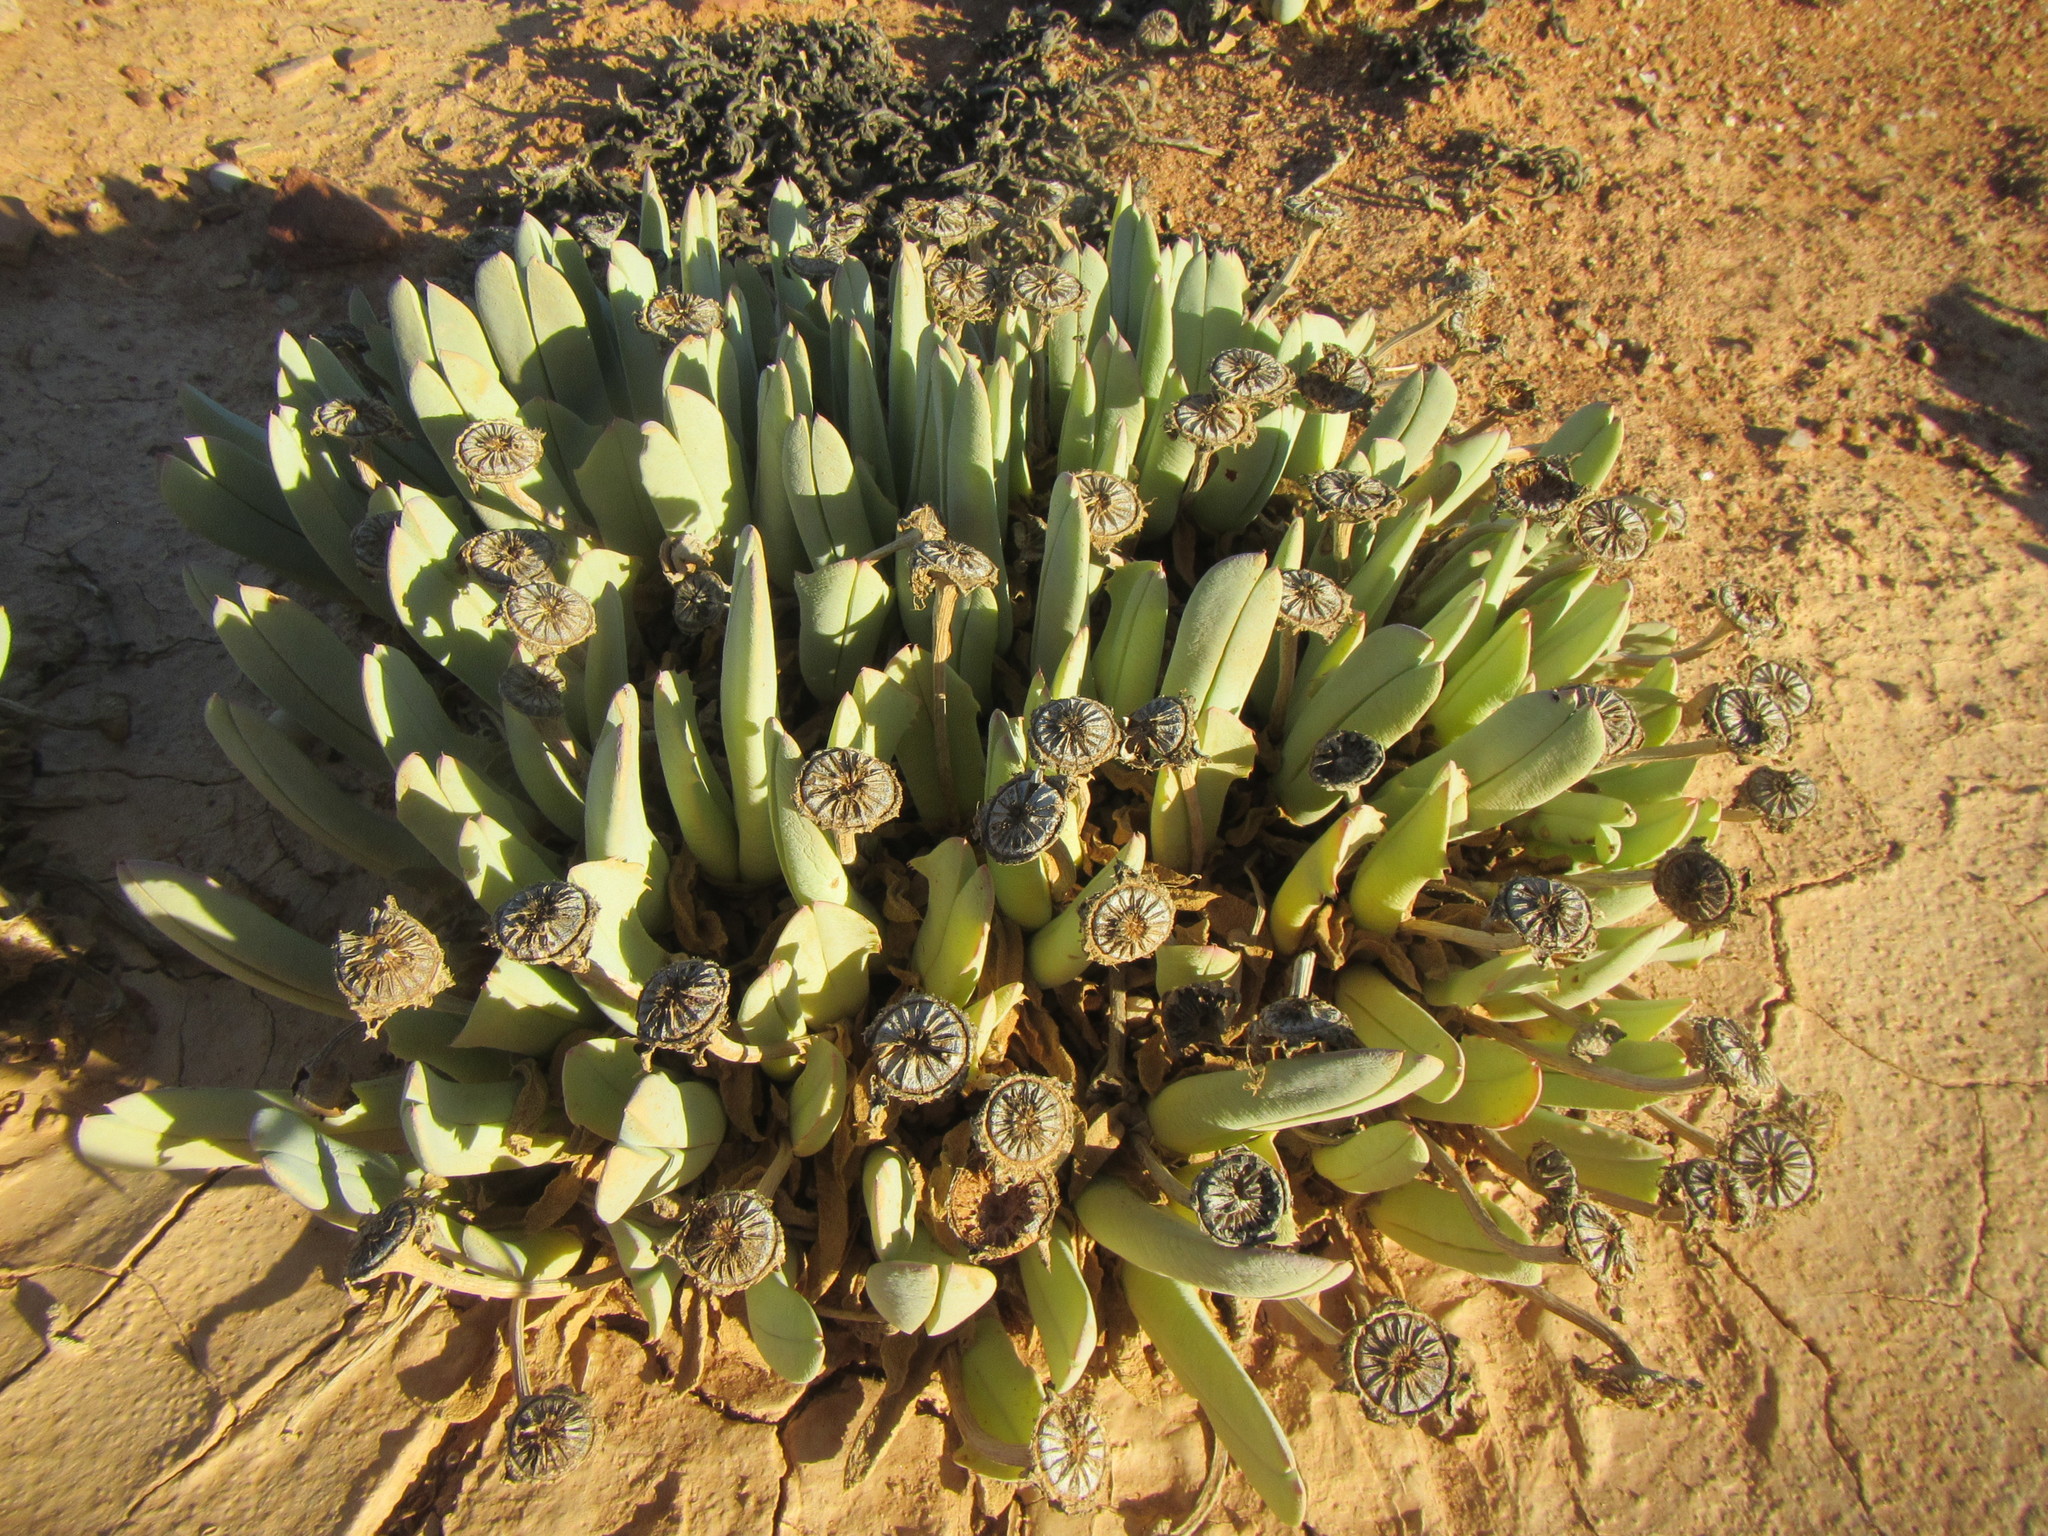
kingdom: Plantae
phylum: Tracheophyta
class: Magnoliopsida
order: Caryophyllales
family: Aizoaceae
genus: Cheiridopsis
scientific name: Cheiridopsis denticulata
